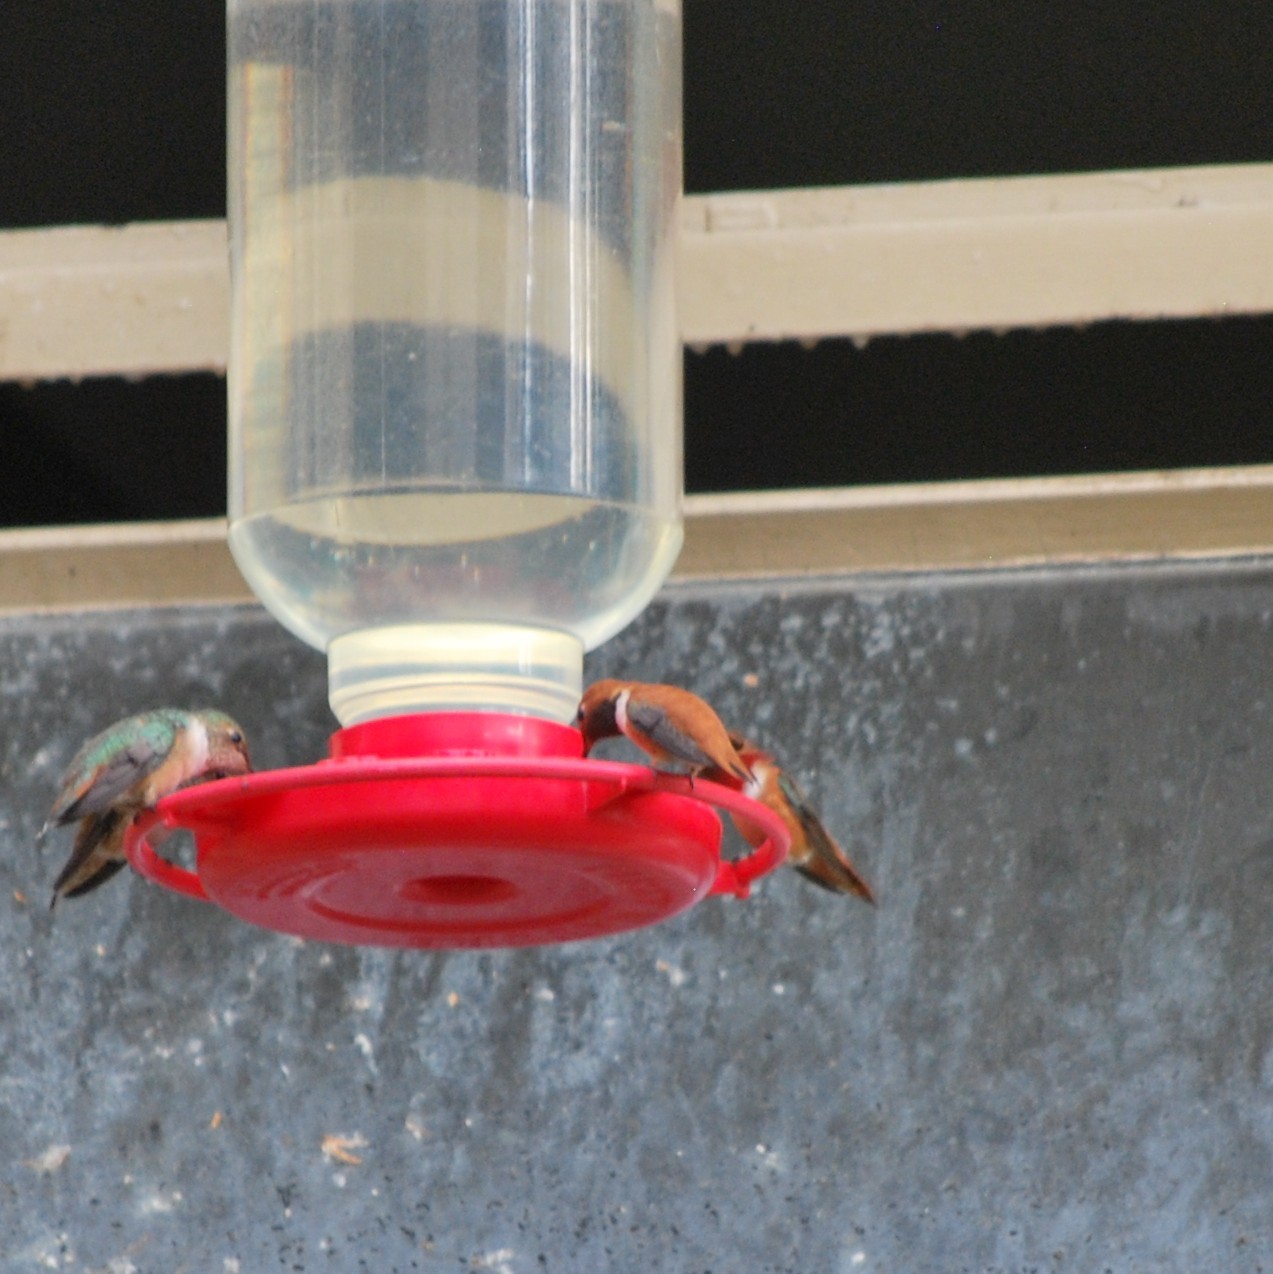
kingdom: Animalia
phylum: Chordata
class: Aves
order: Apodiformes
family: Trochilidae
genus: Selasphorus
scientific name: Selasphorus rufus
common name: Rufous hummingbird
